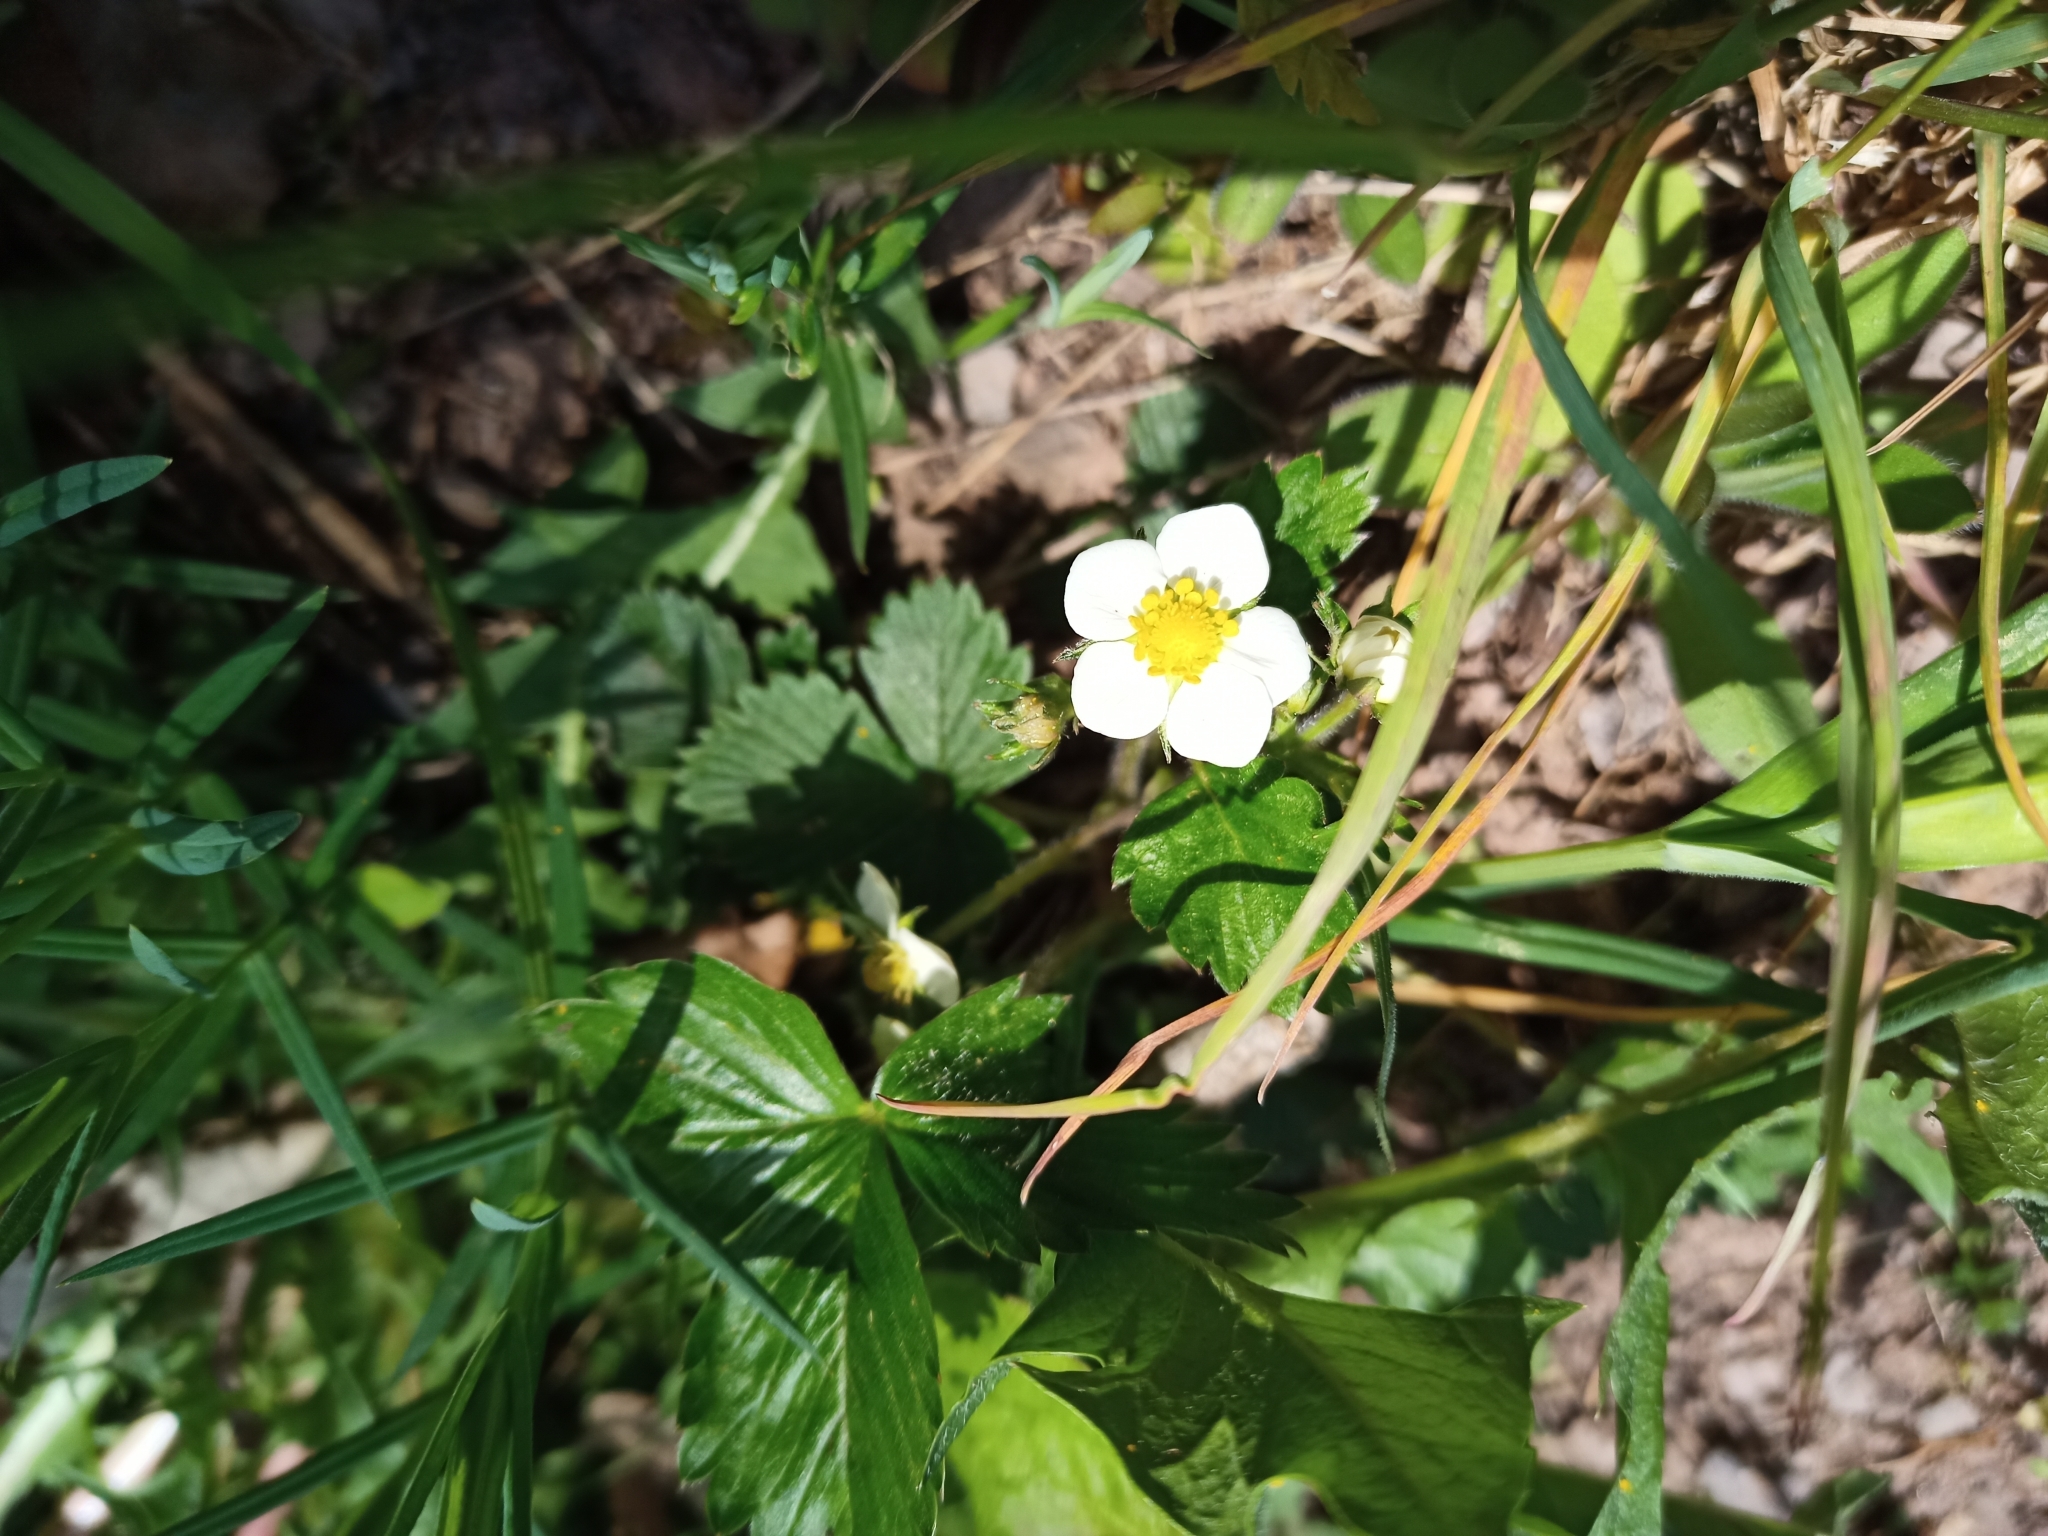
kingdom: Plantae
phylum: Tracheophyta
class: Magnoliopsida
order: Rosales
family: Rosaceae
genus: Fragaria
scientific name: Fragaria vesca
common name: Wild strawberry
